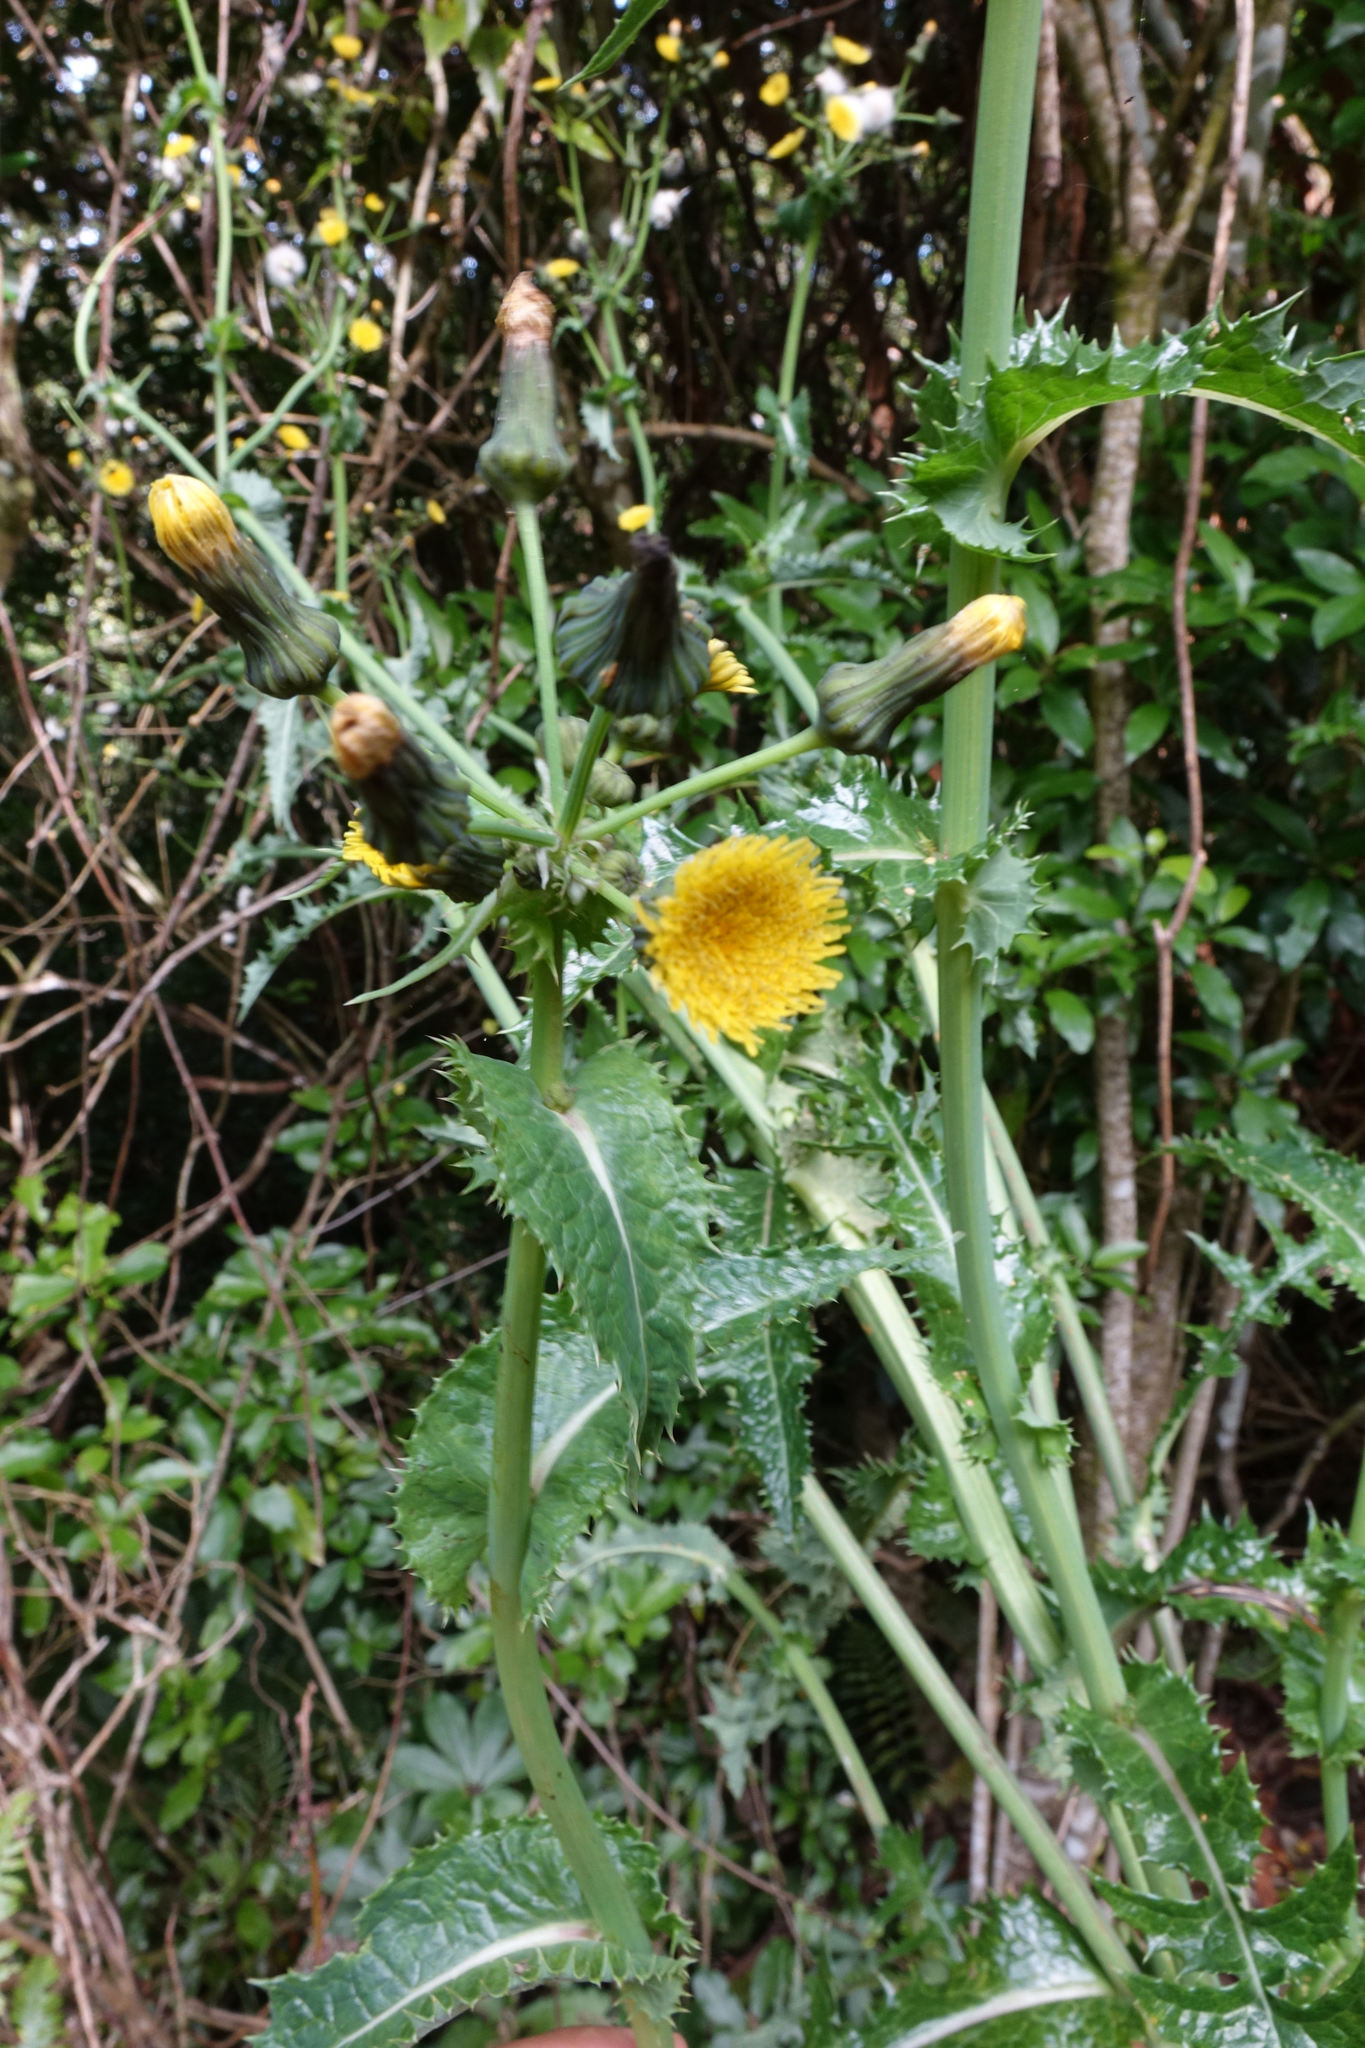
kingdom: Plantae
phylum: Tracheophyta
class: Magnoliopsida
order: Asterales
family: Asteraceae
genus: Sonchus
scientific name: Sonchus asper
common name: Prickly sow-thistle
